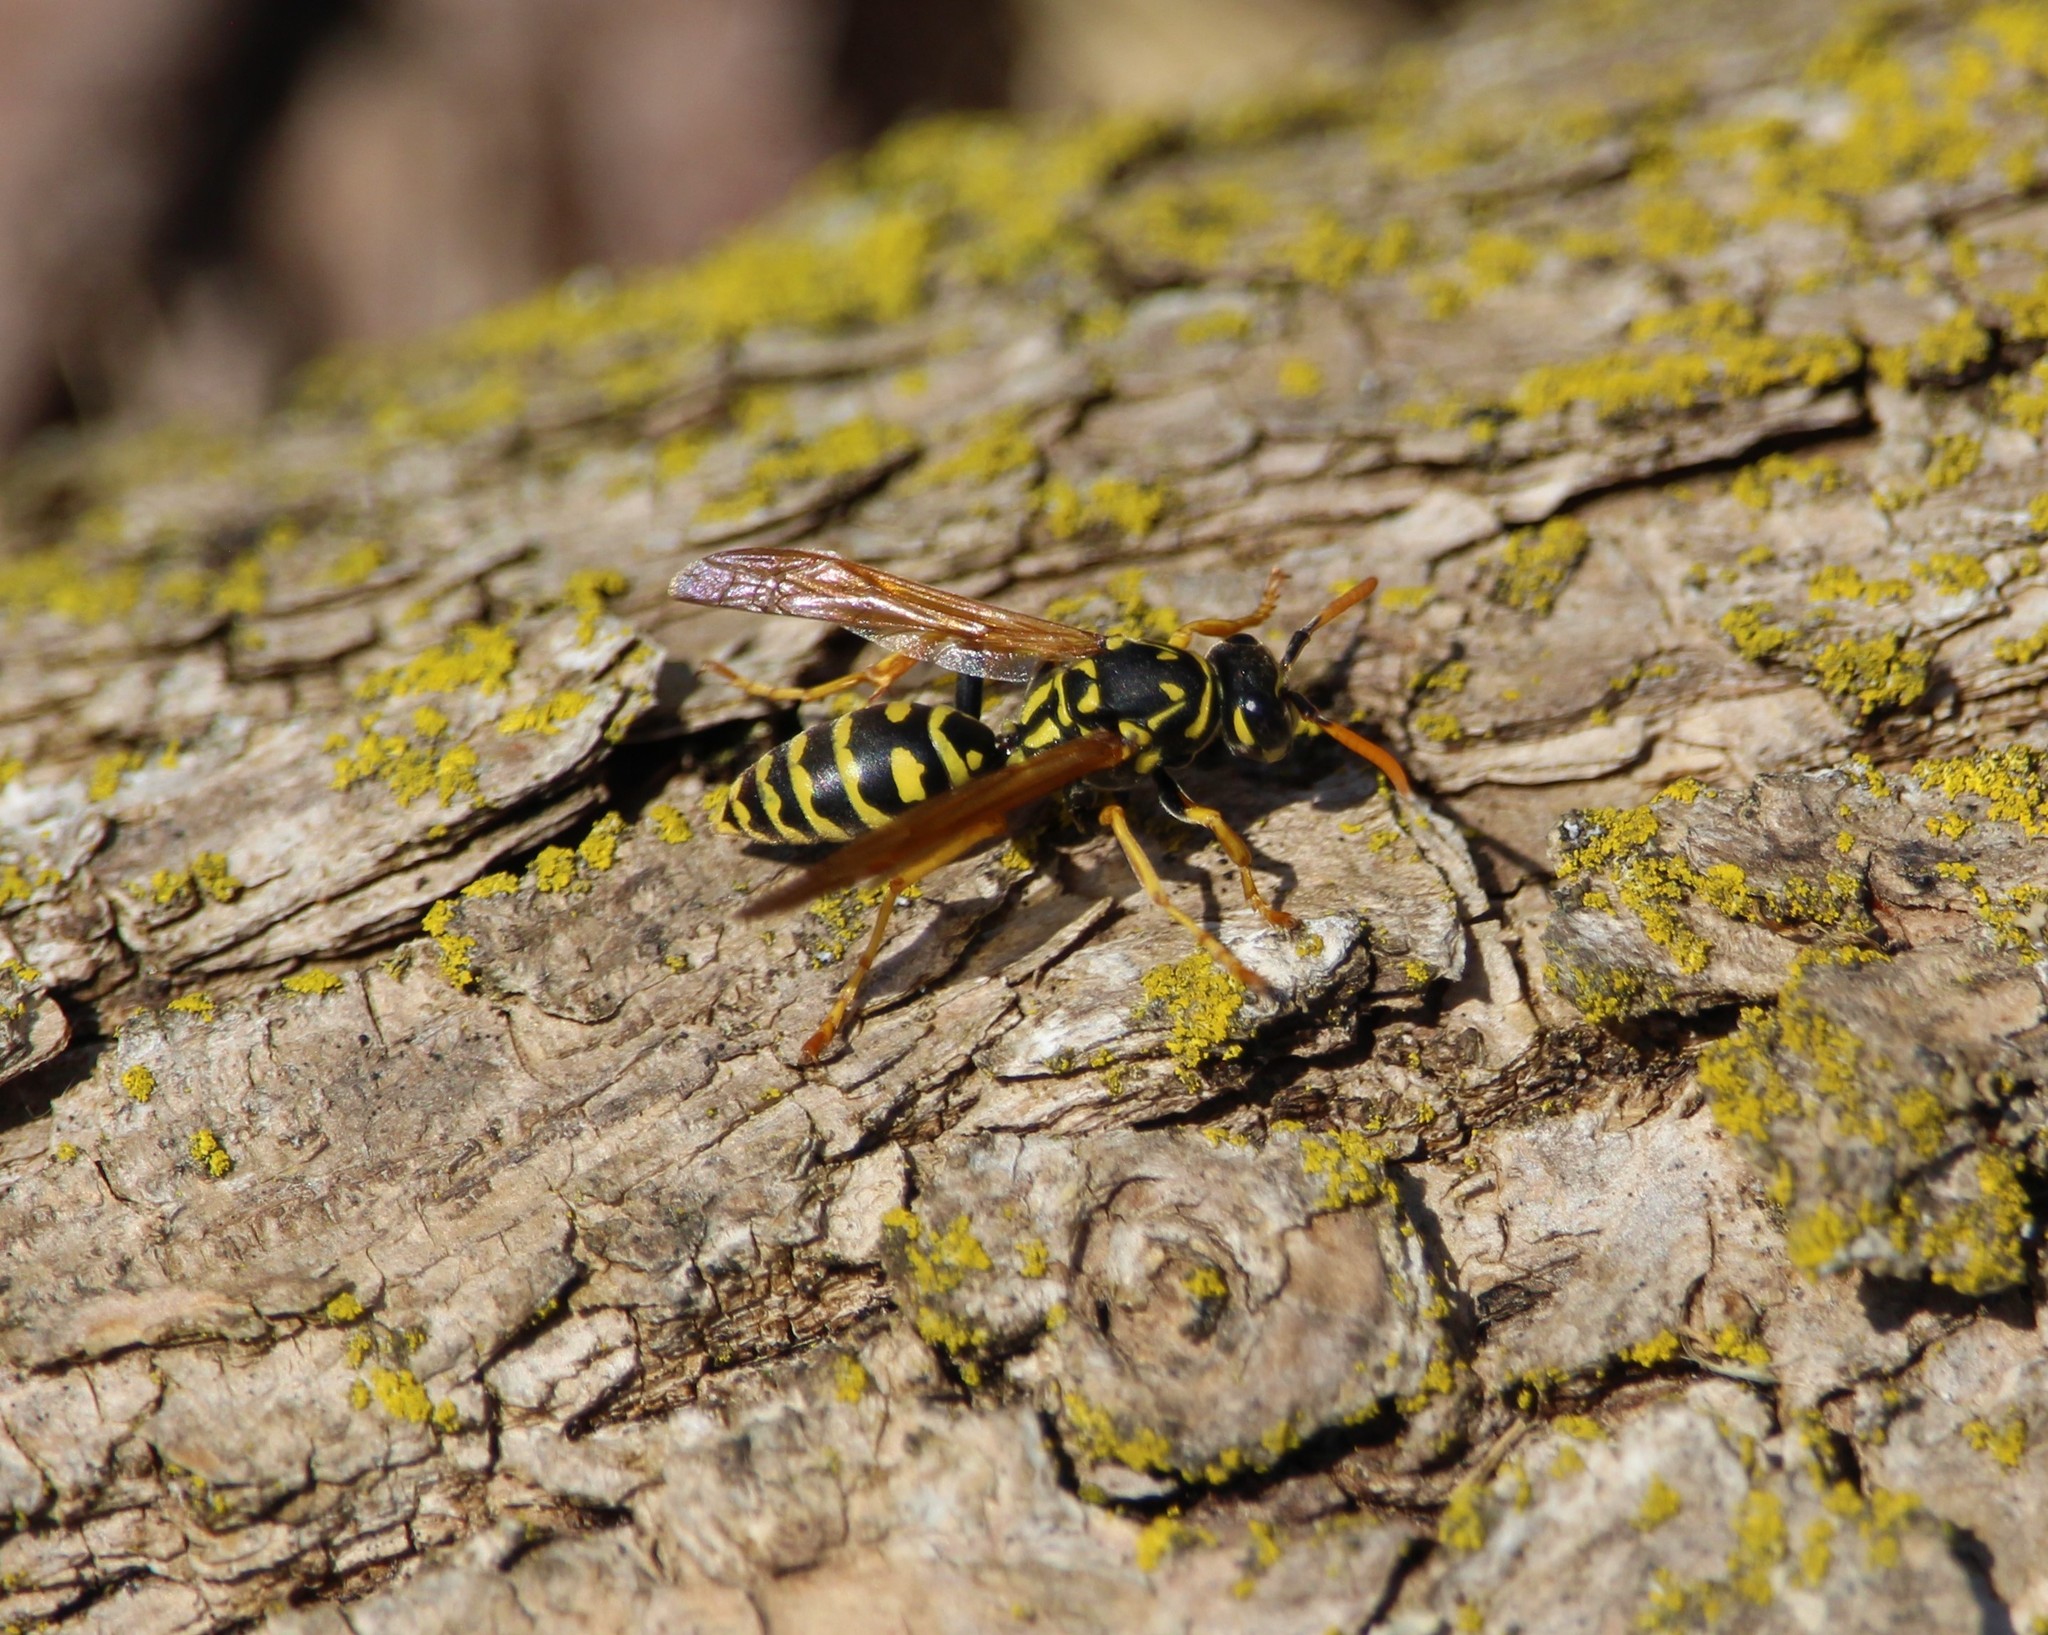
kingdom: Animalia
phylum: Arthropoda
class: Insecta
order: Hymenoptera
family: Eumenidae
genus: Polistes
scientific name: Polistes dominula
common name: Paper wasp
